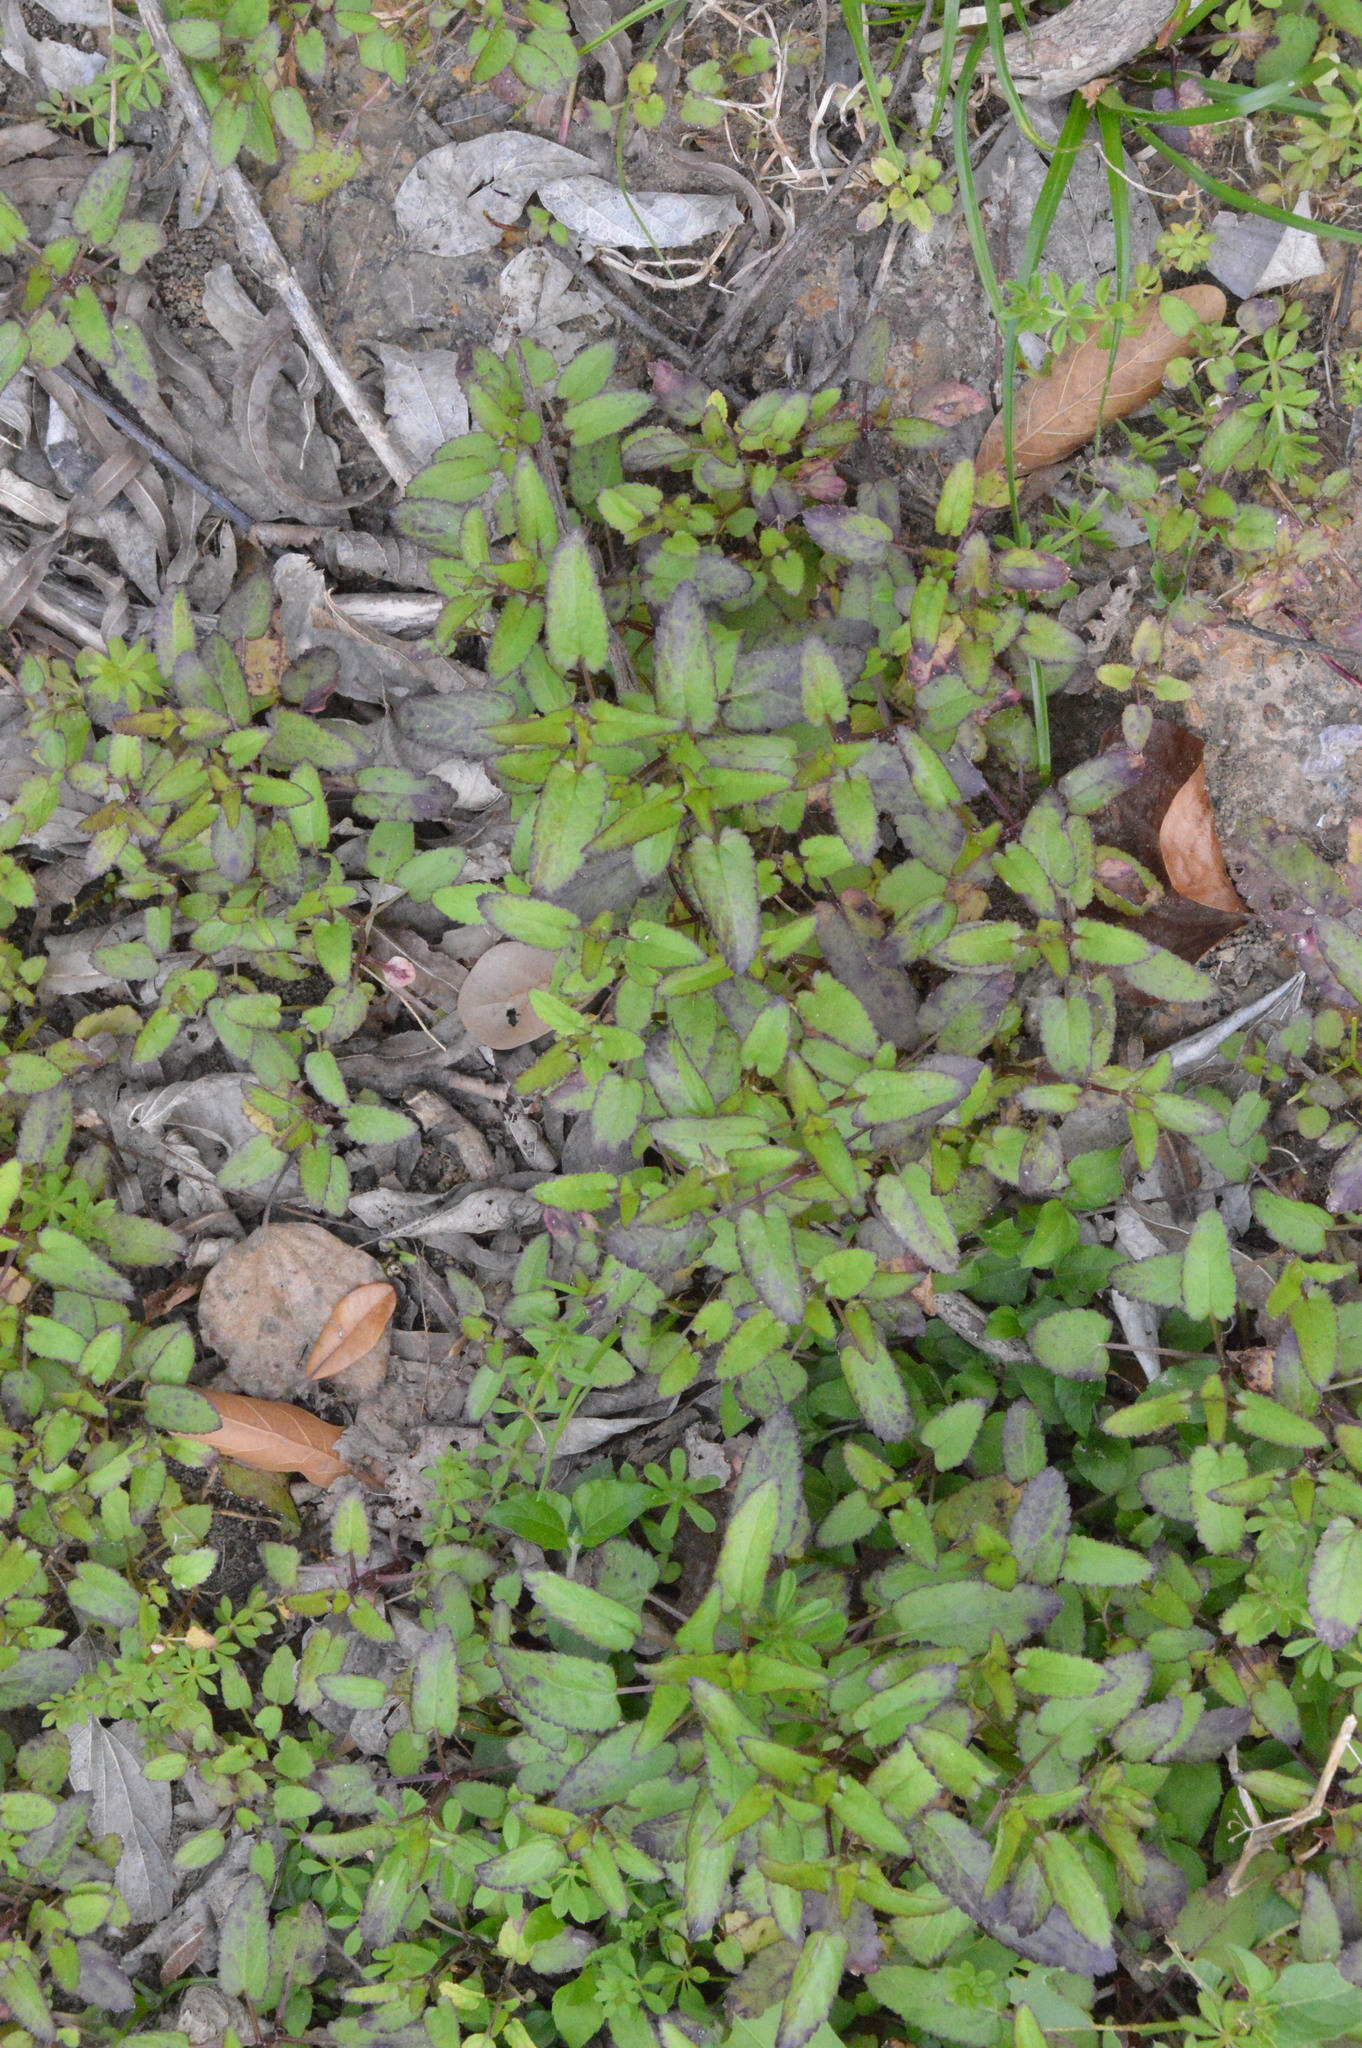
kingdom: Plantae
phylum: Tracheophyta
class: Magnoliopsida
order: Lamiales
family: Lamiaceae
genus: Stachys
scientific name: Stachys floridana
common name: Florida betony
